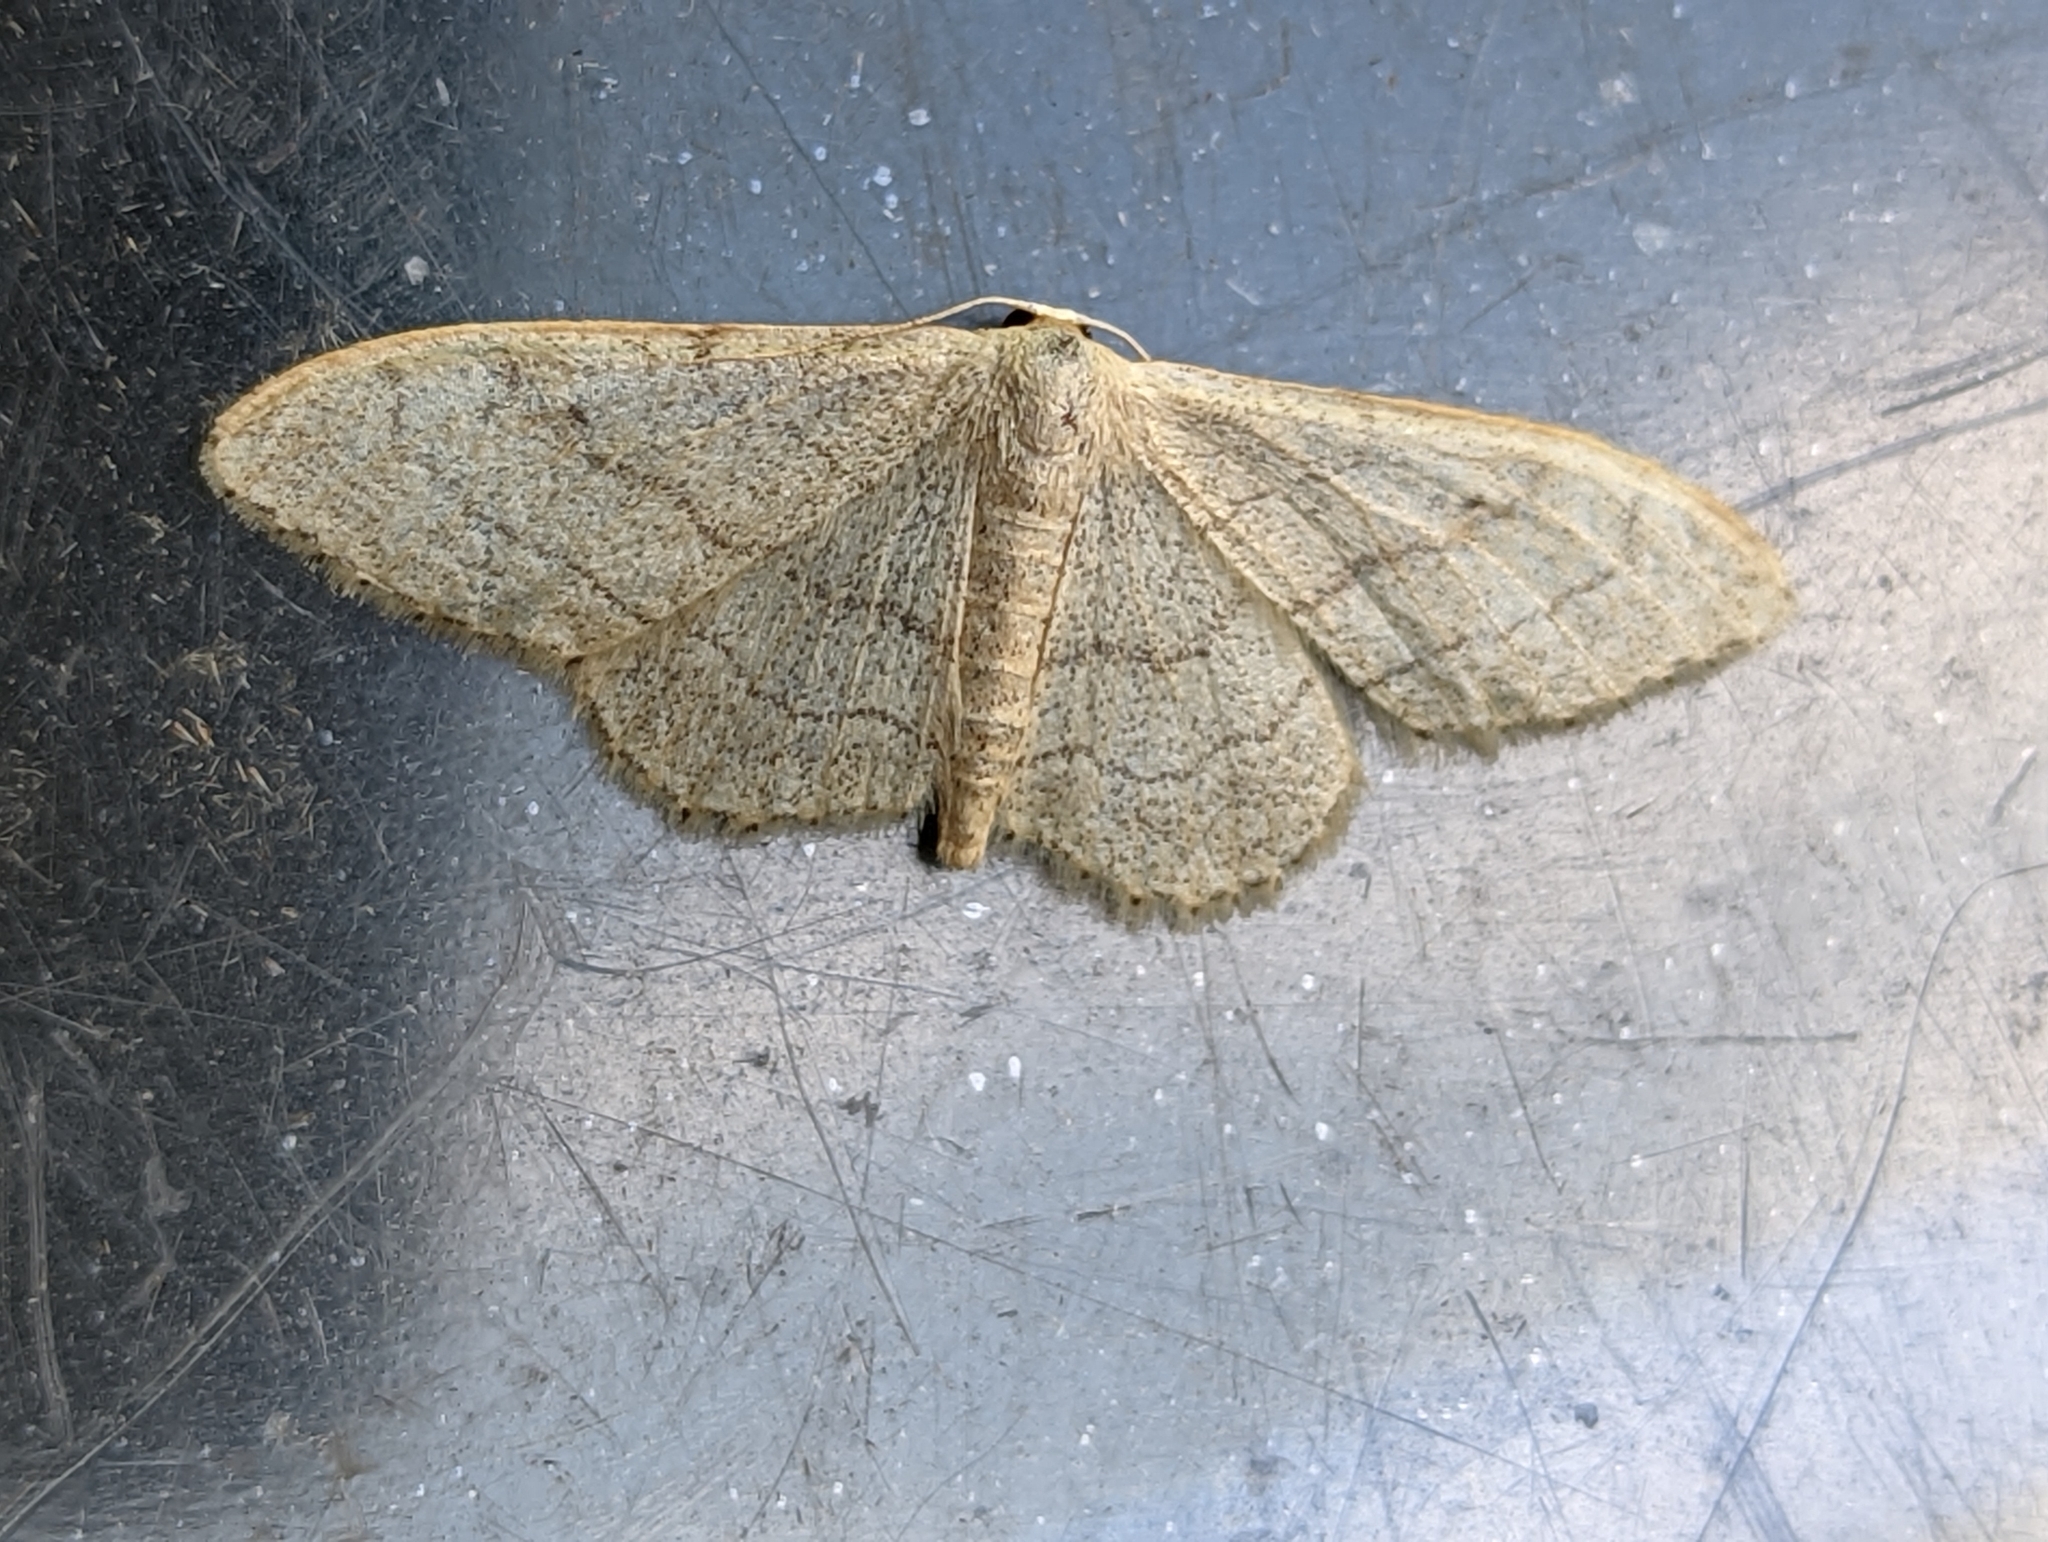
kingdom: Animalia
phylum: Arthropoda
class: Insecta
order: Lepidoptera
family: Geometridae
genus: Idaea
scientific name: Idaea aversata
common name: Riband wave
